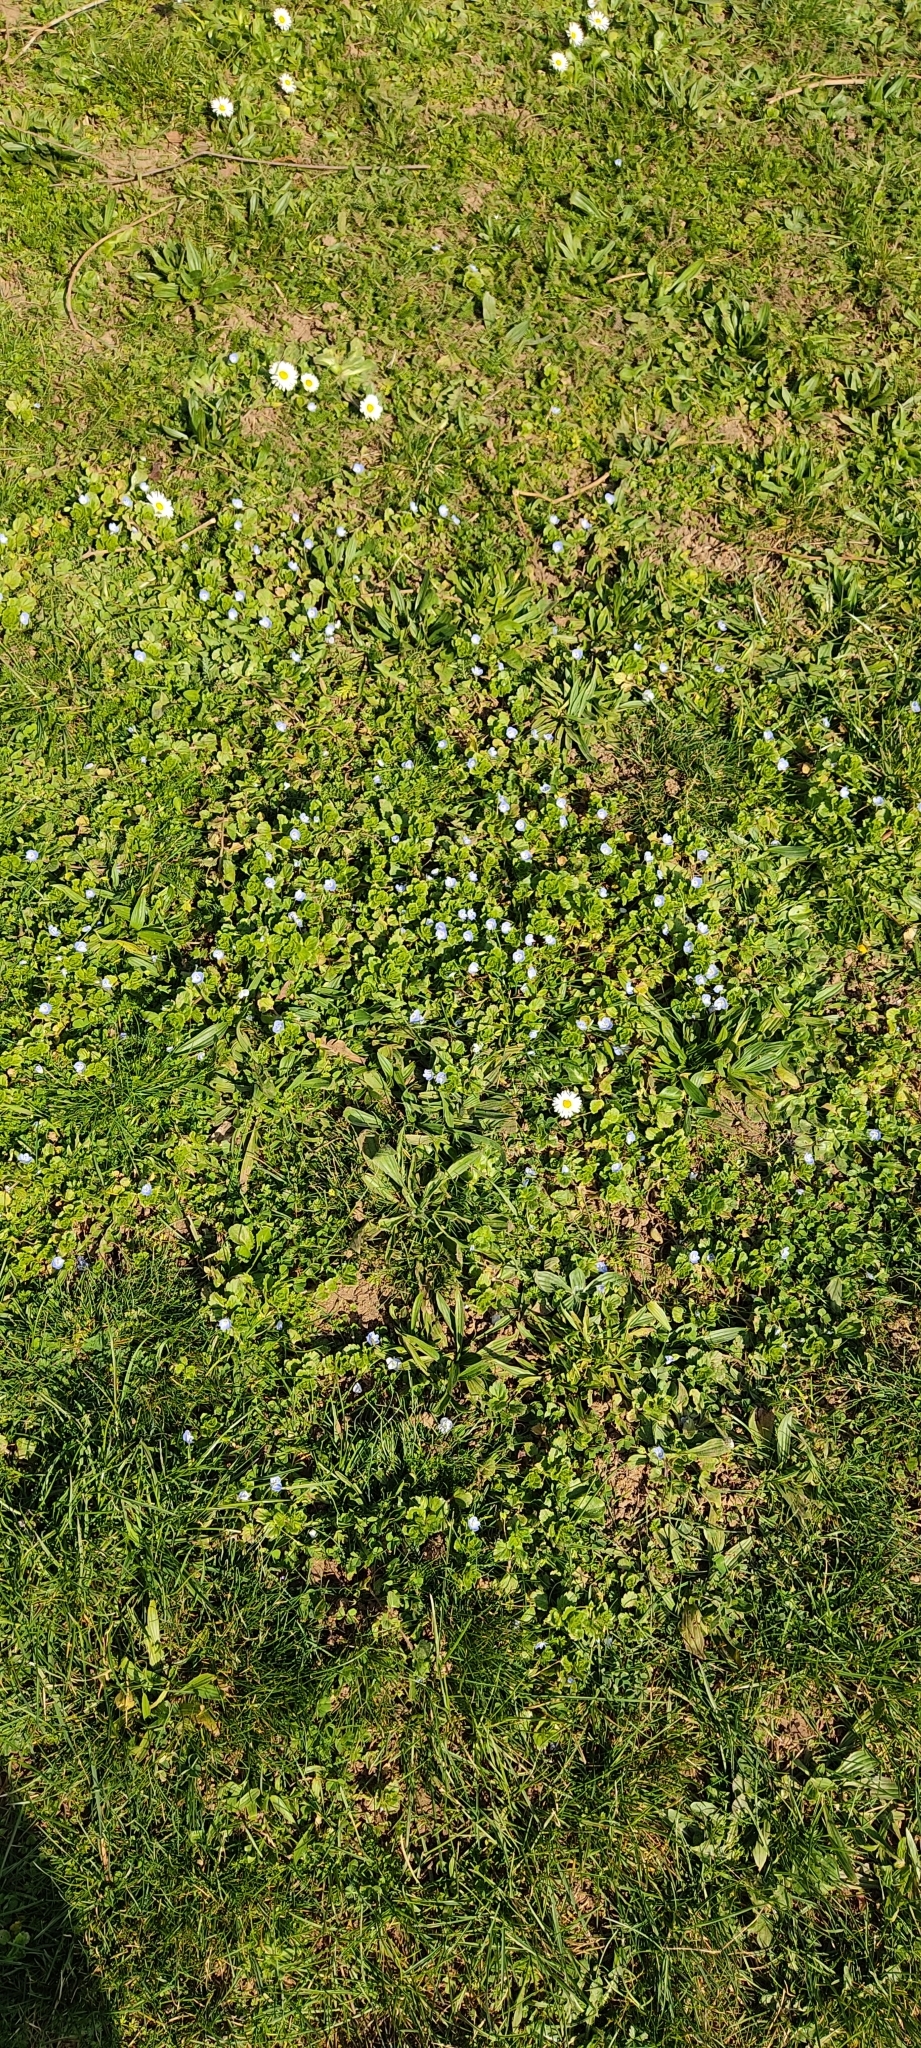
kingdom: Plantae
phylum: Tracheophyta
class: Magnoliopsida
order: Lamiales
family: Plantaginaceae
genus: Veronica
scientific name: Veronica persica
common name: Common field-speedwell
